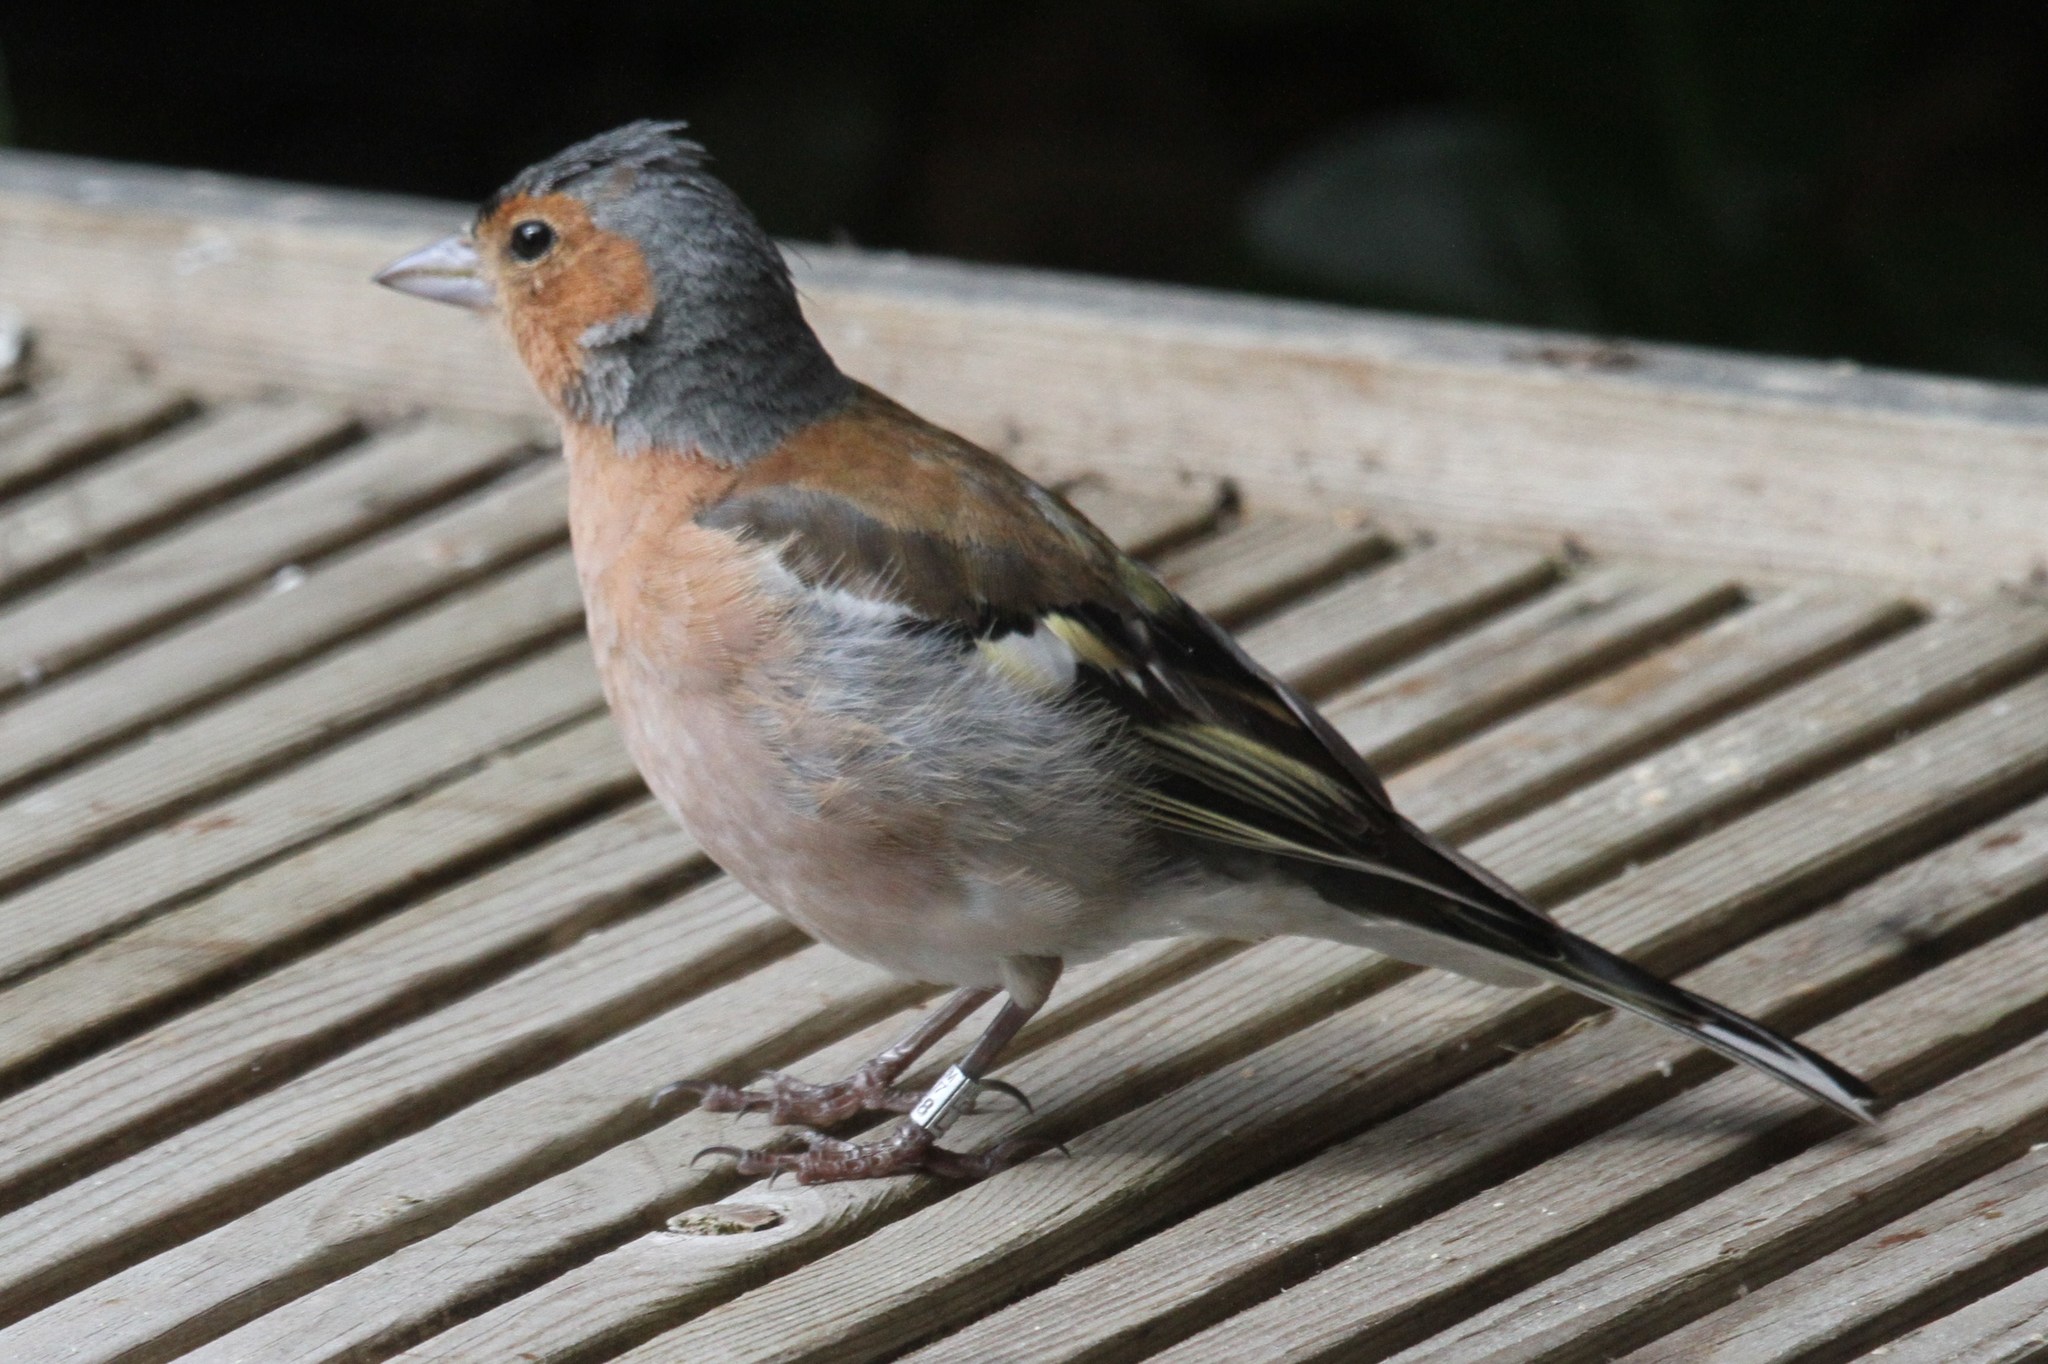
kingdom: Animalia
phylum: Chordata
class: Aves
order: Passeriformes
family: Fringillidae
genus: Fringilla
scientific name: Fringilla coelebs
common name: Common chaffinch
